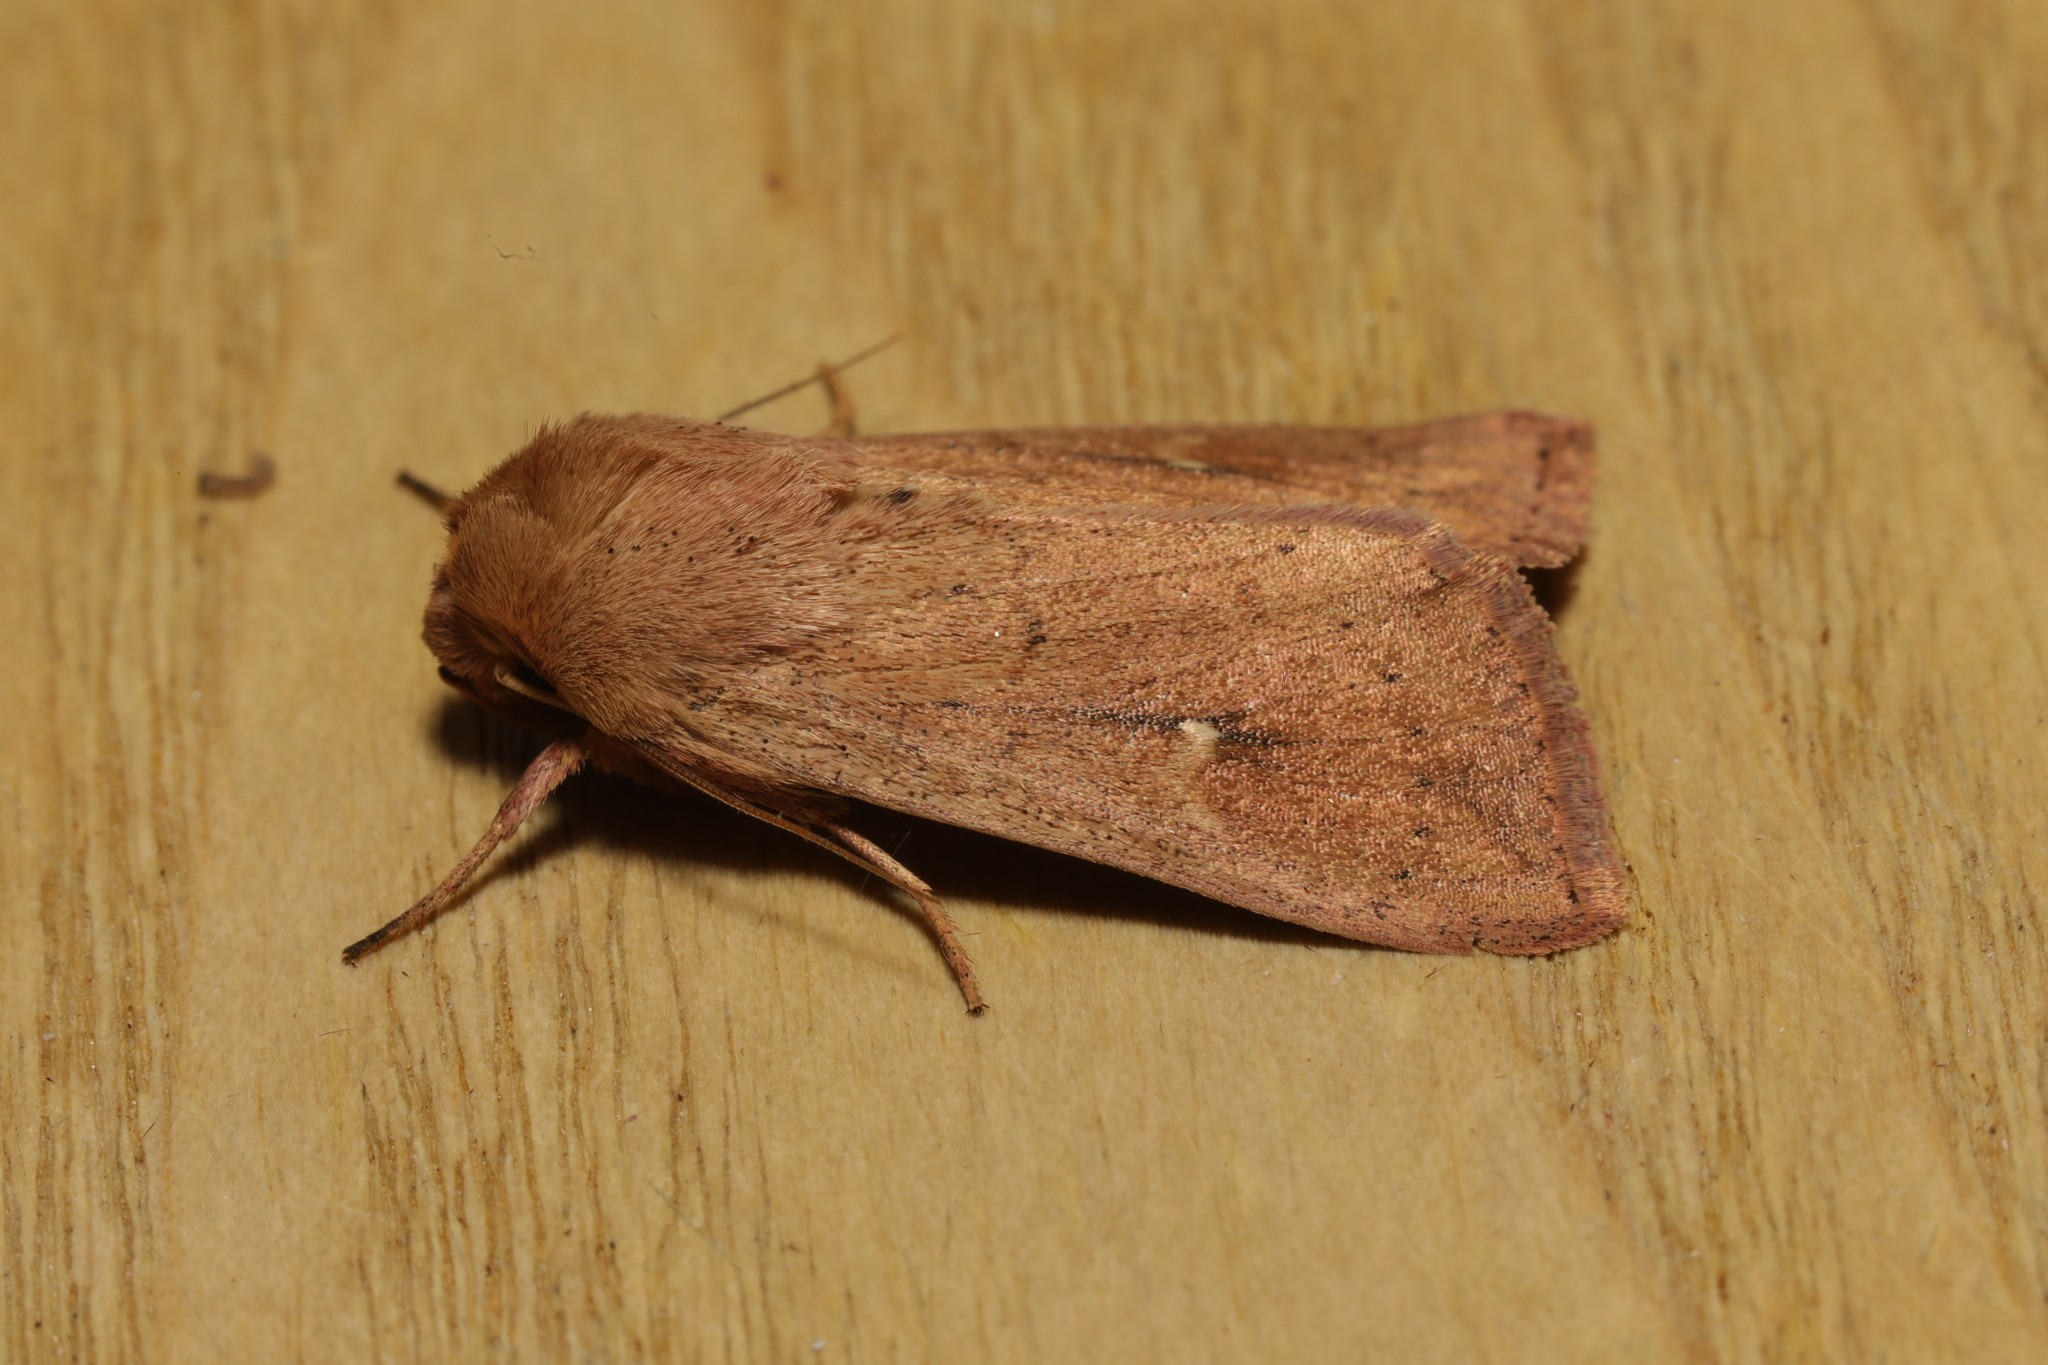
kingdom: Animalia
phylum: Arthropoda
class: Insecta
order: Lepidoptera
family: Noctuidae
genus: Mythimna
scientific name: Mythimna ferrago
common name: Clay
